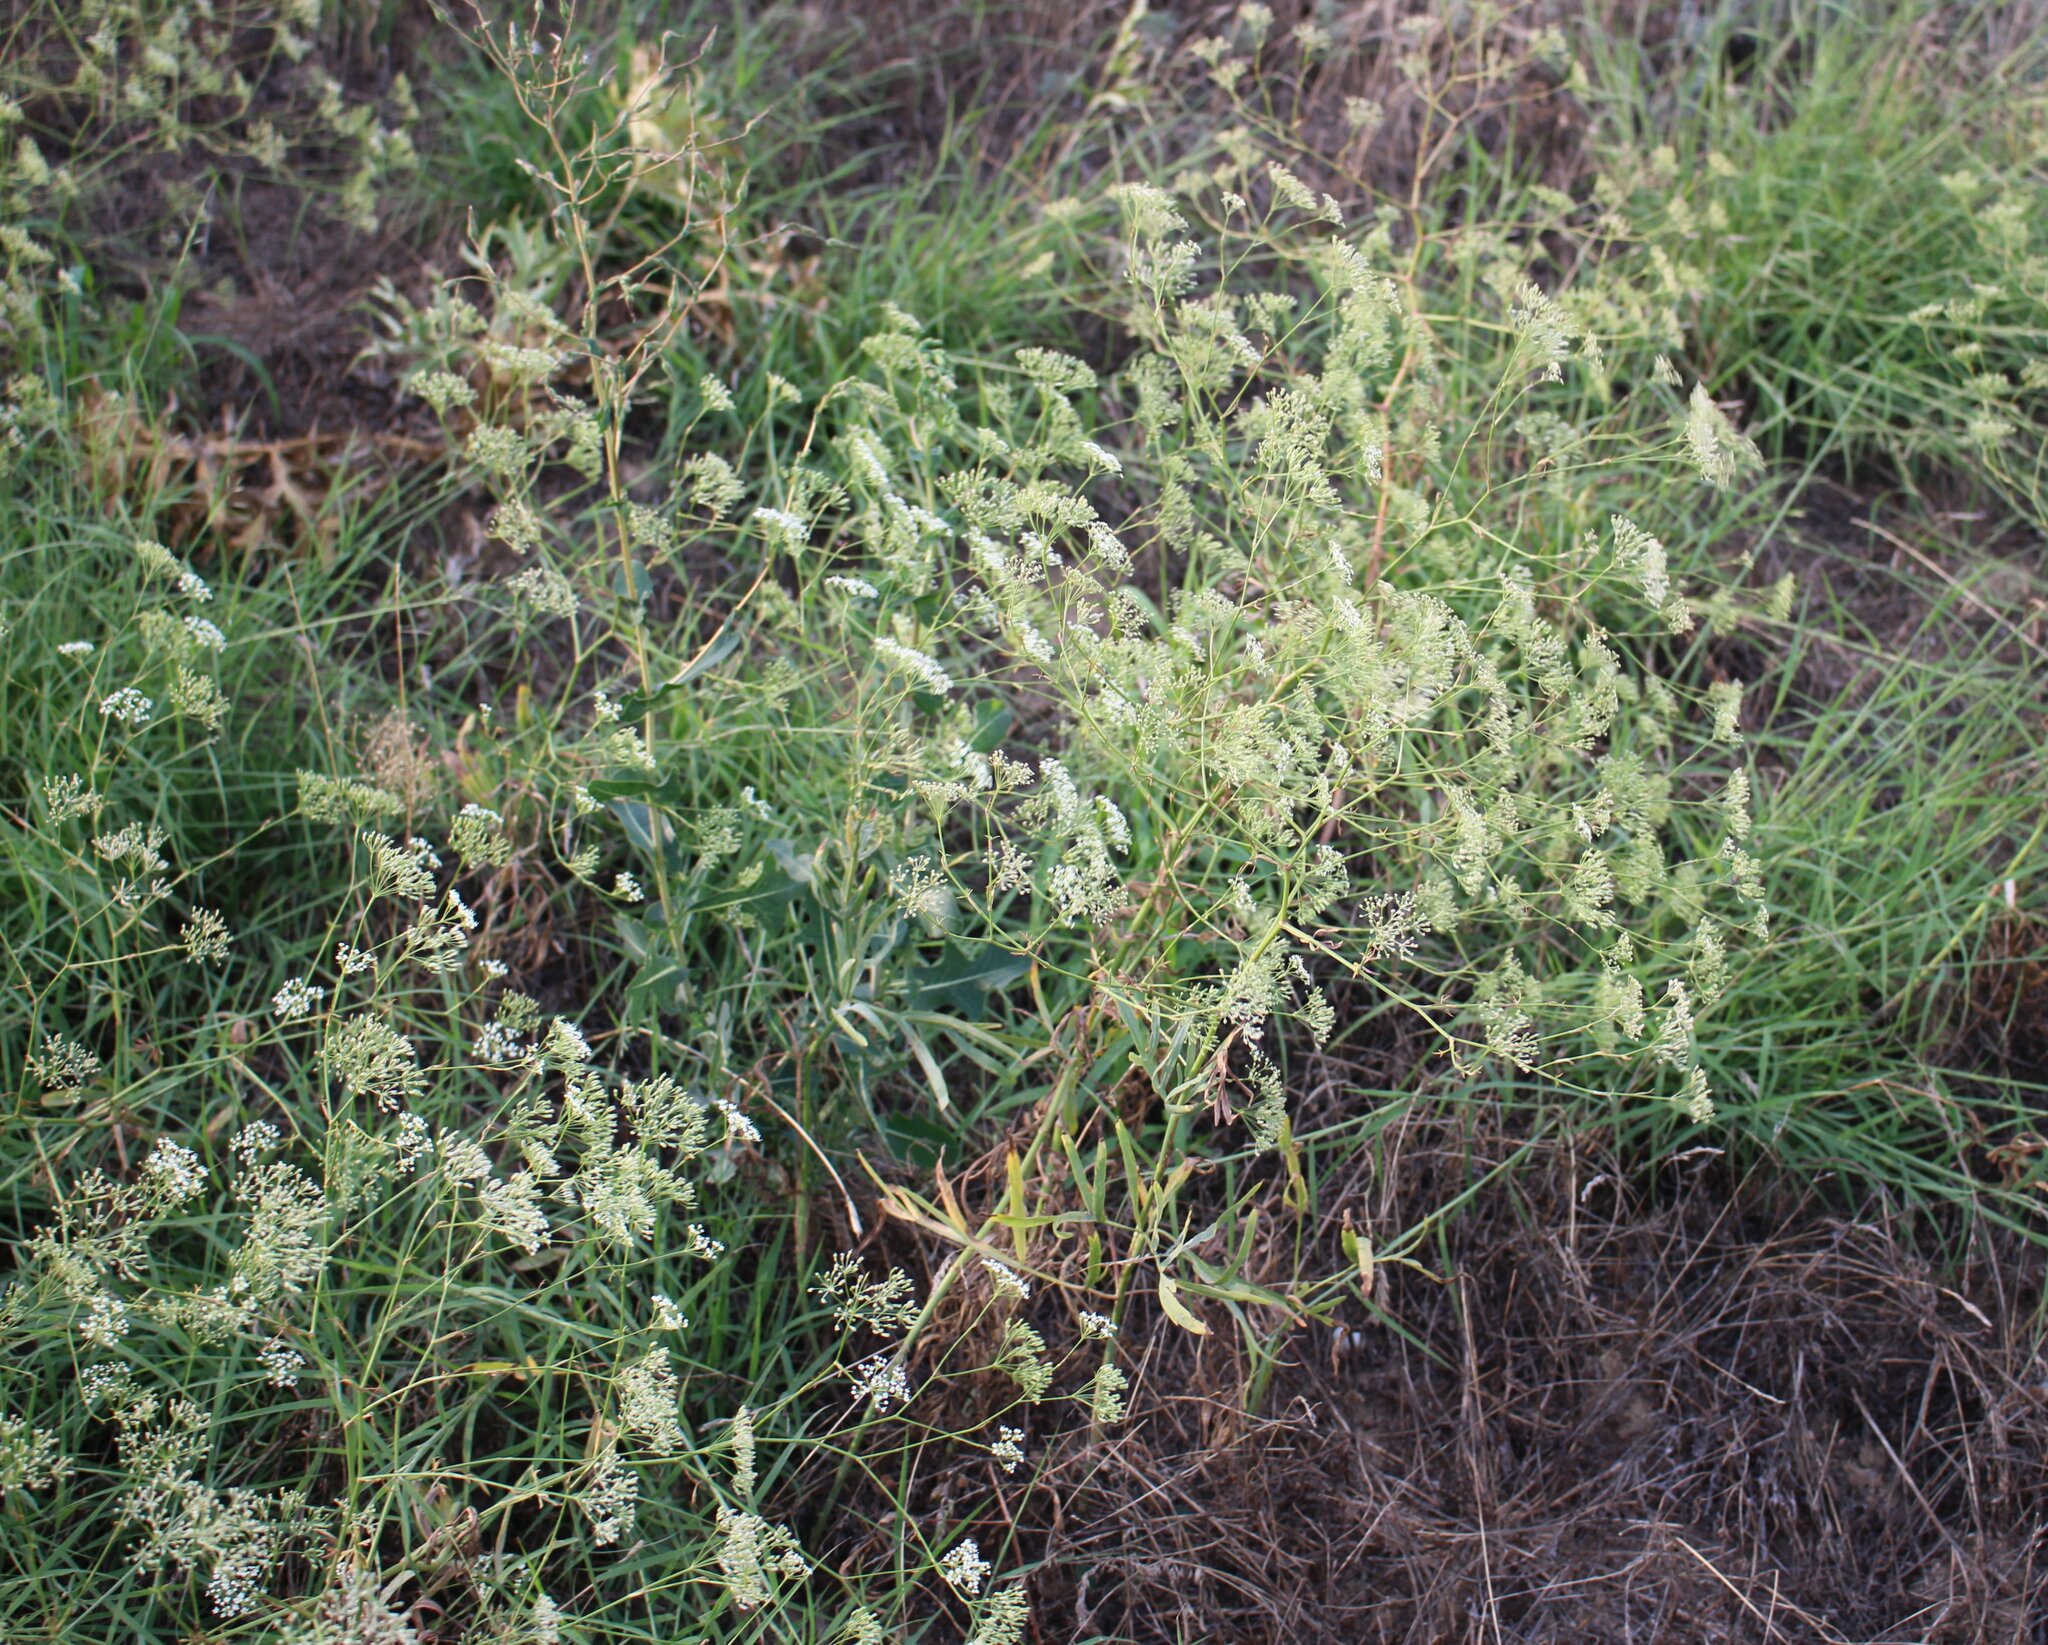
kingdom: Plantae
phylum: Tracheophyta
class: Magnoliopsida
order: Apiales
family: Apiaceae
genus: Falcaria
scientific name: Falcaria vulgaris
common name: Longleaf
